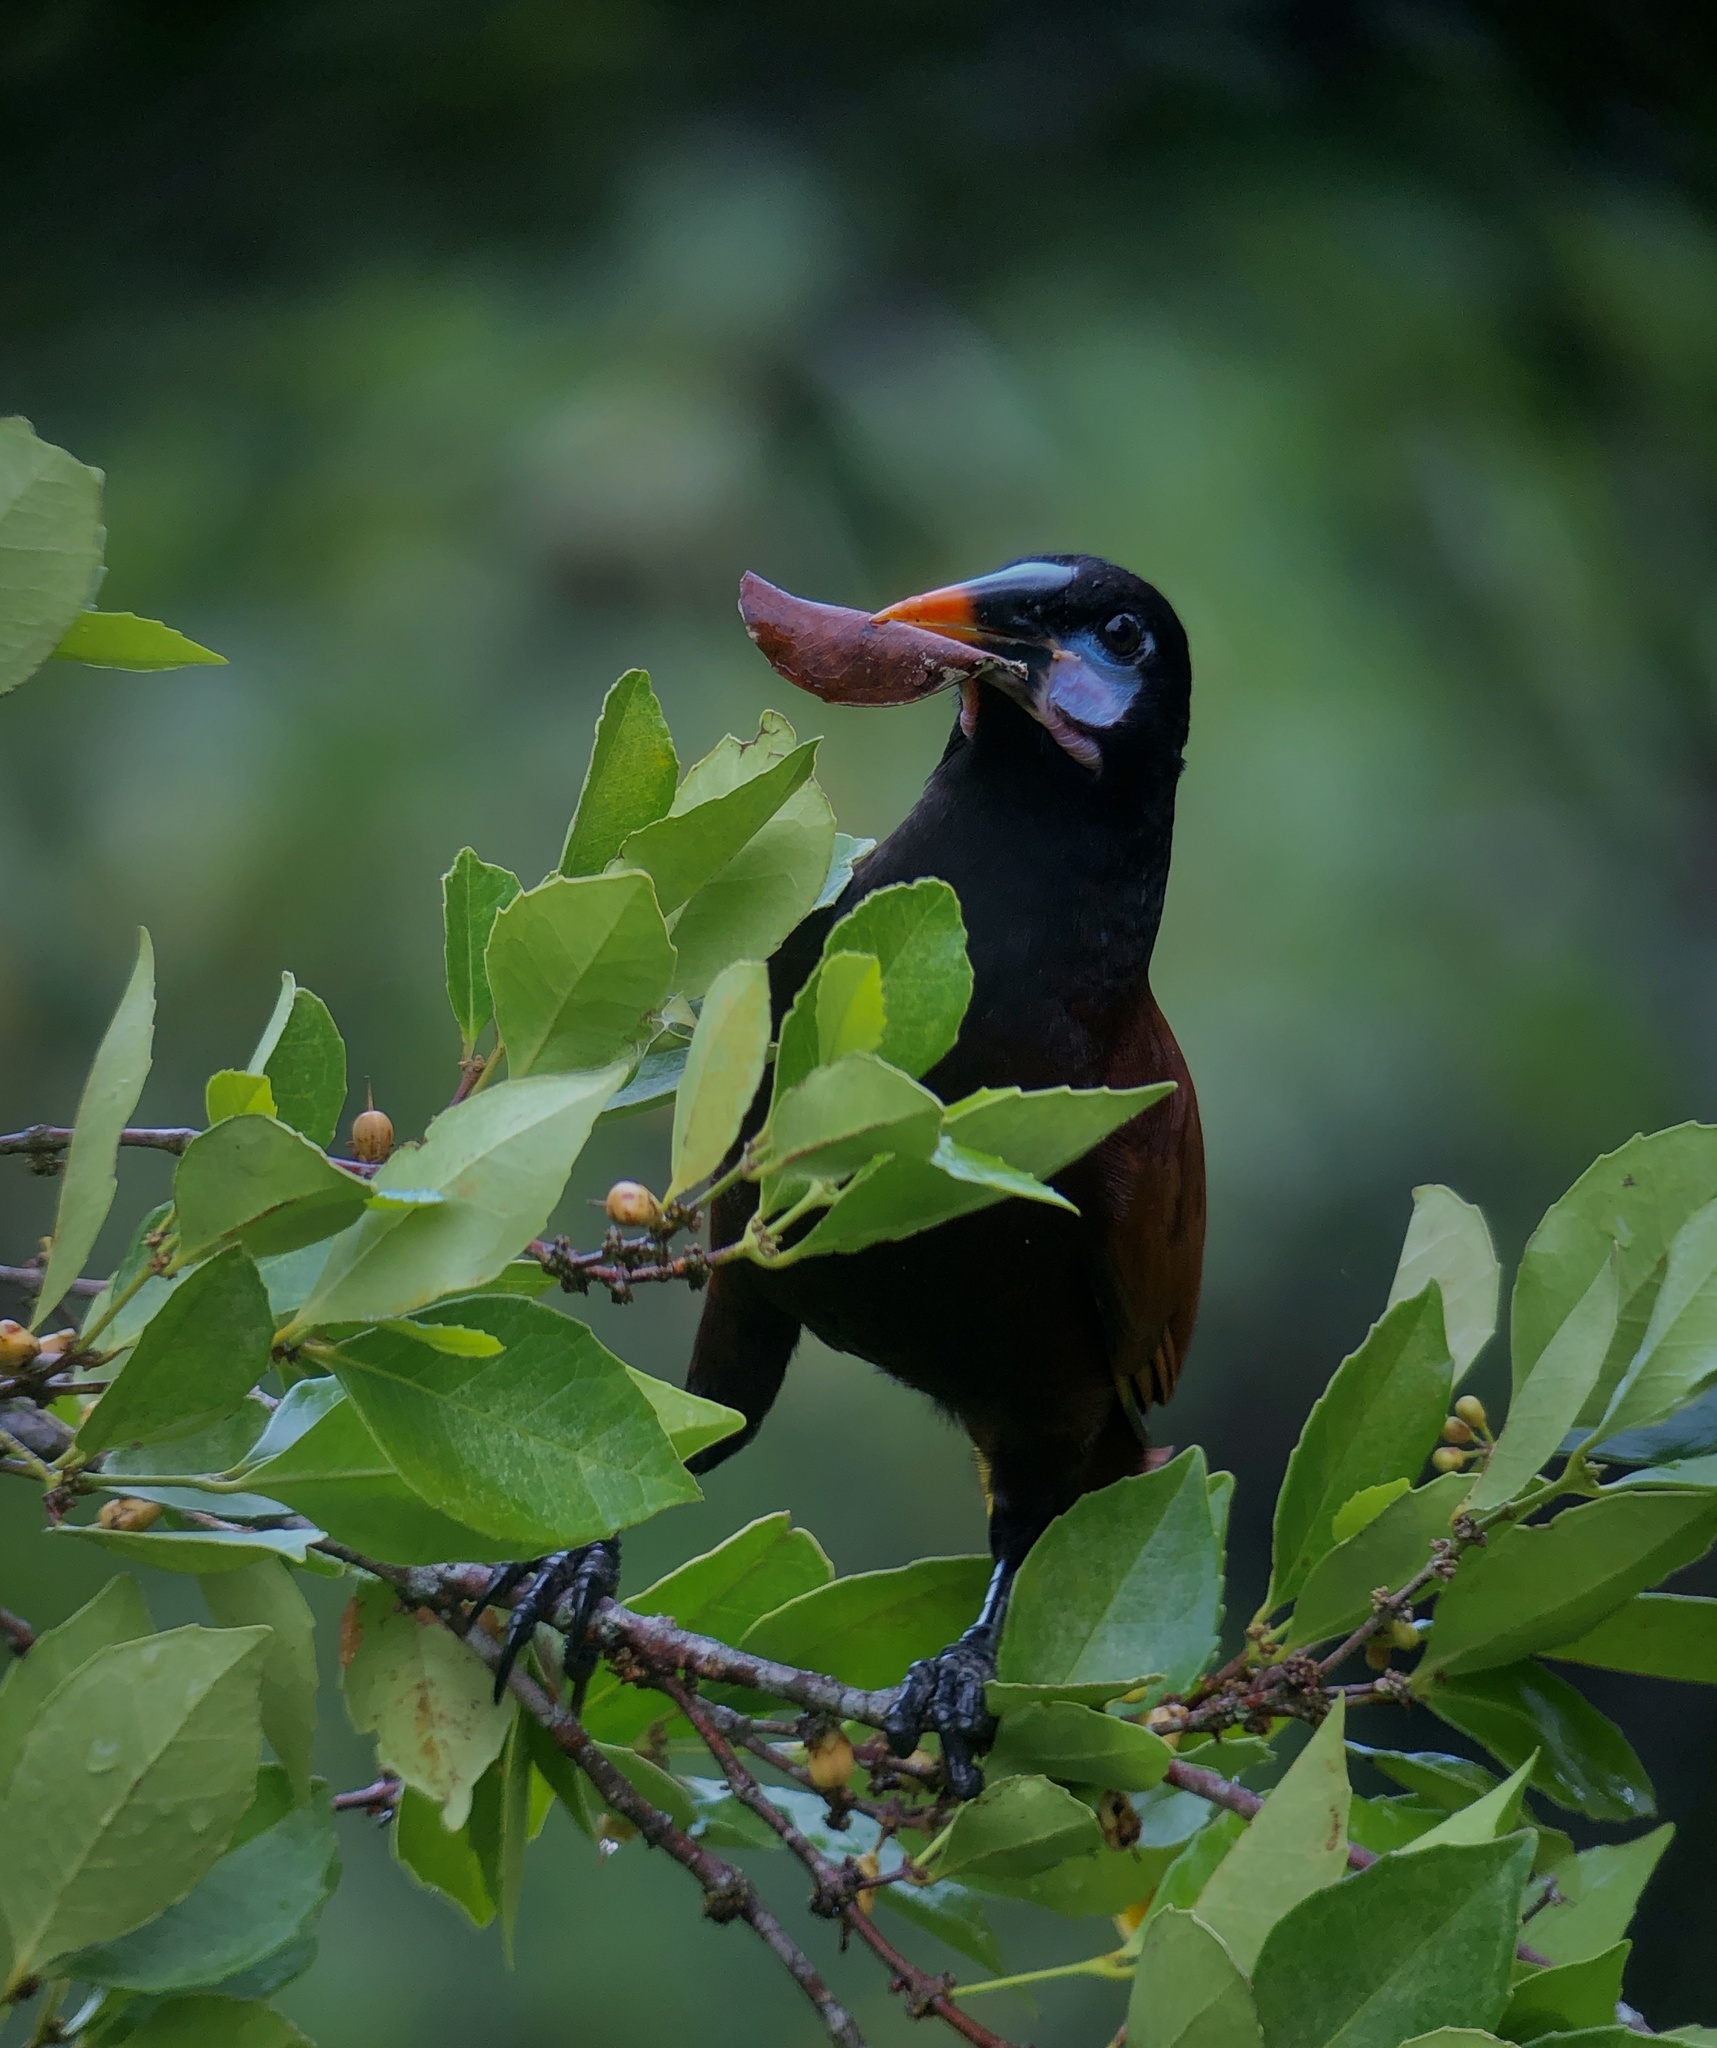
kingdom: Animalia
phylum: Chordata
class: Aves
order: Passeriformes
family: Icteridae
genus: Psarocolius
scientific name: Psarocolius montezuma
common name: Montezuma oropendola
